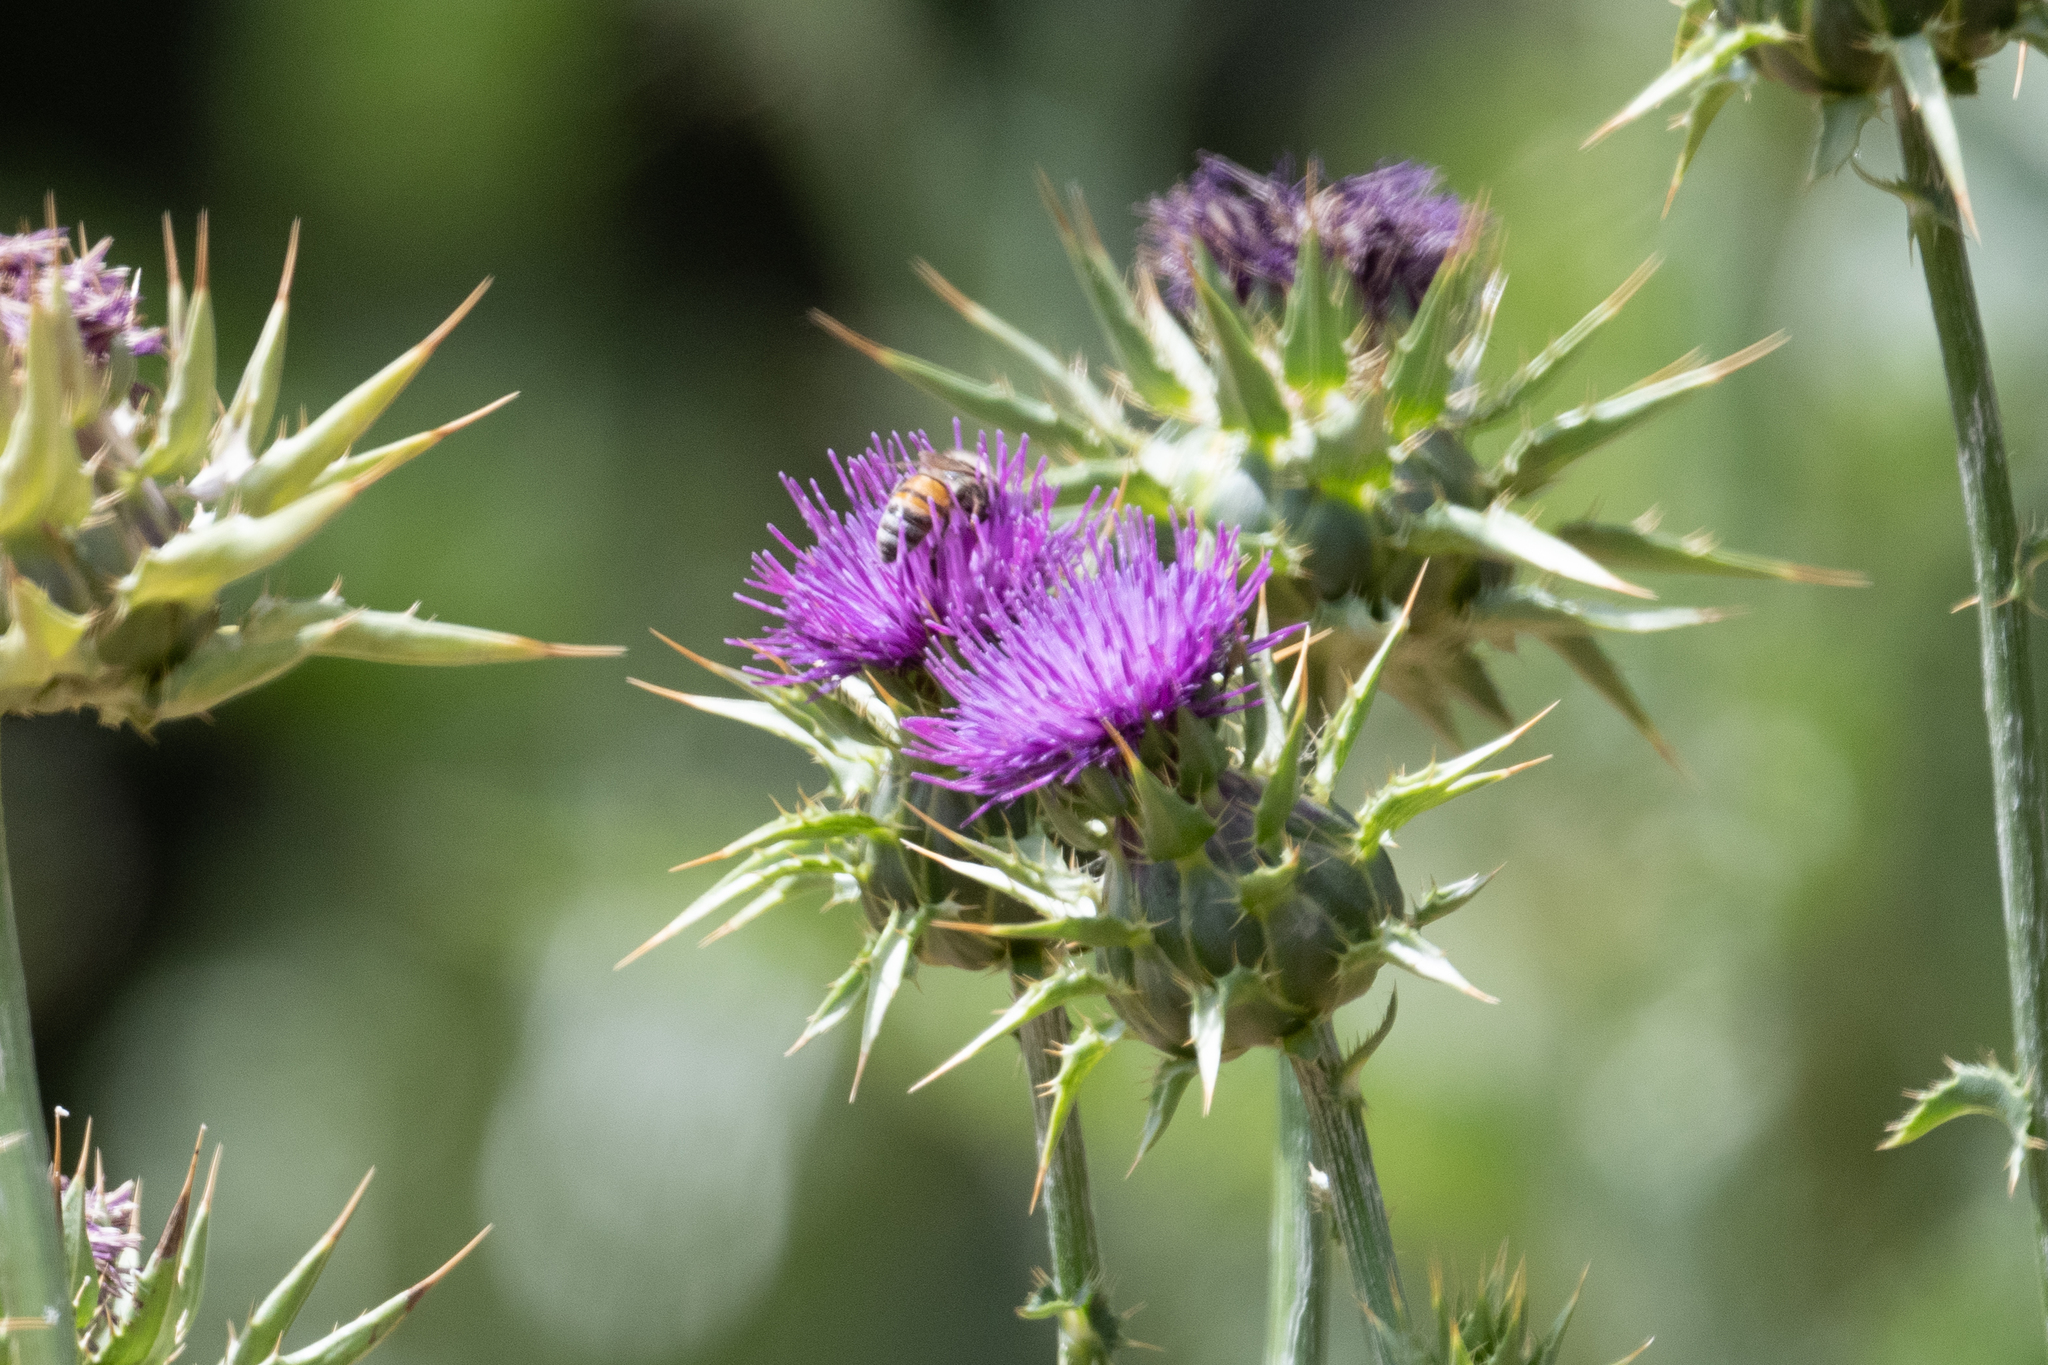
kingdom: Plantae
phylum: Tracheophyta
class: Magnoliopsida
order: Asterales
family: Asteraceae
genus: Silybum
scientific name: Silybum marianum
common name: Milk thistle
